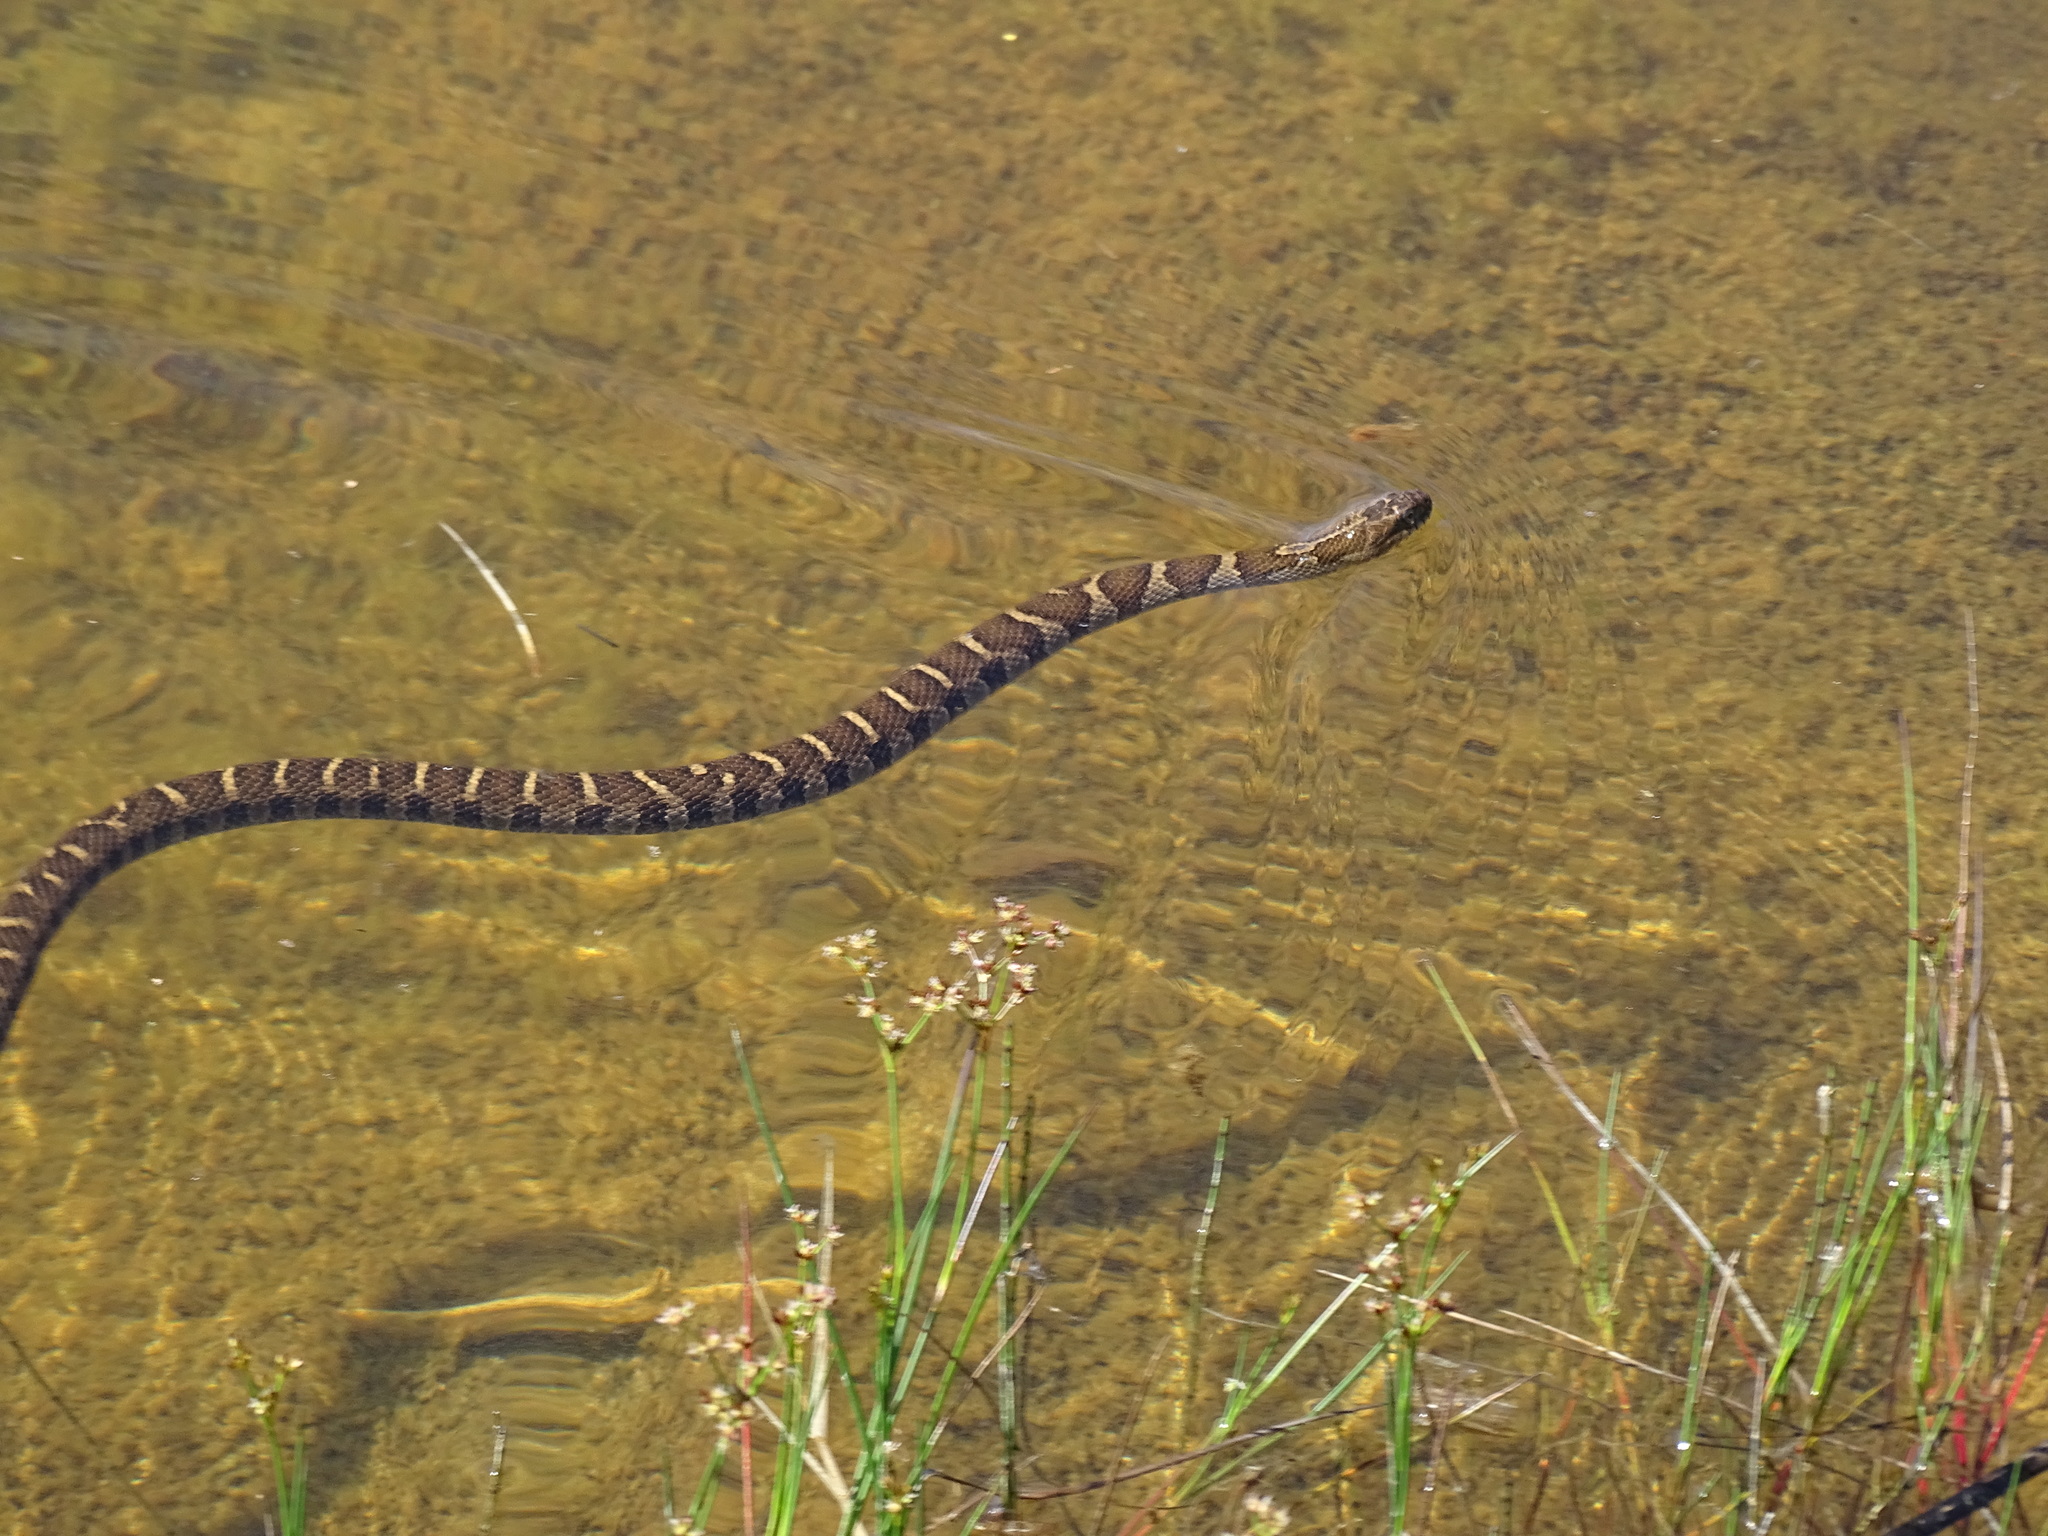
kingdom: Animalia
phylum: Chordata
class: Squamata
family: Colubridae
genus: Nerodia
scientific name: Nerodia sipedon
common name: Northern water snake
